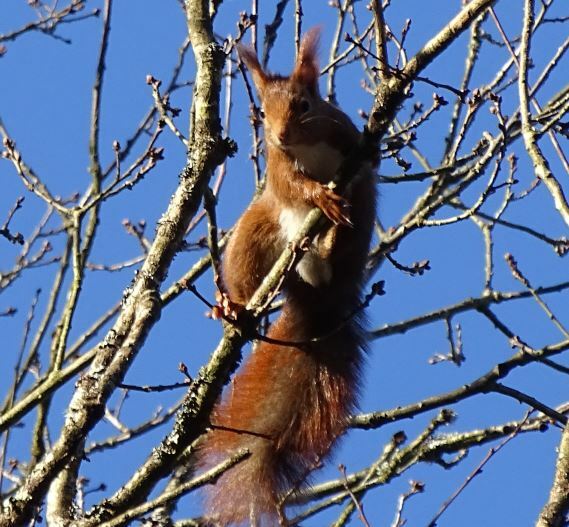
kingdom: Animalia
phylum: Chordata
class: Mammalia
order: Rodentia
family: Sciuridae
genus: Sciurus
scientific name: Sciurus vulgaris
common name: Eurasian red squirrel
